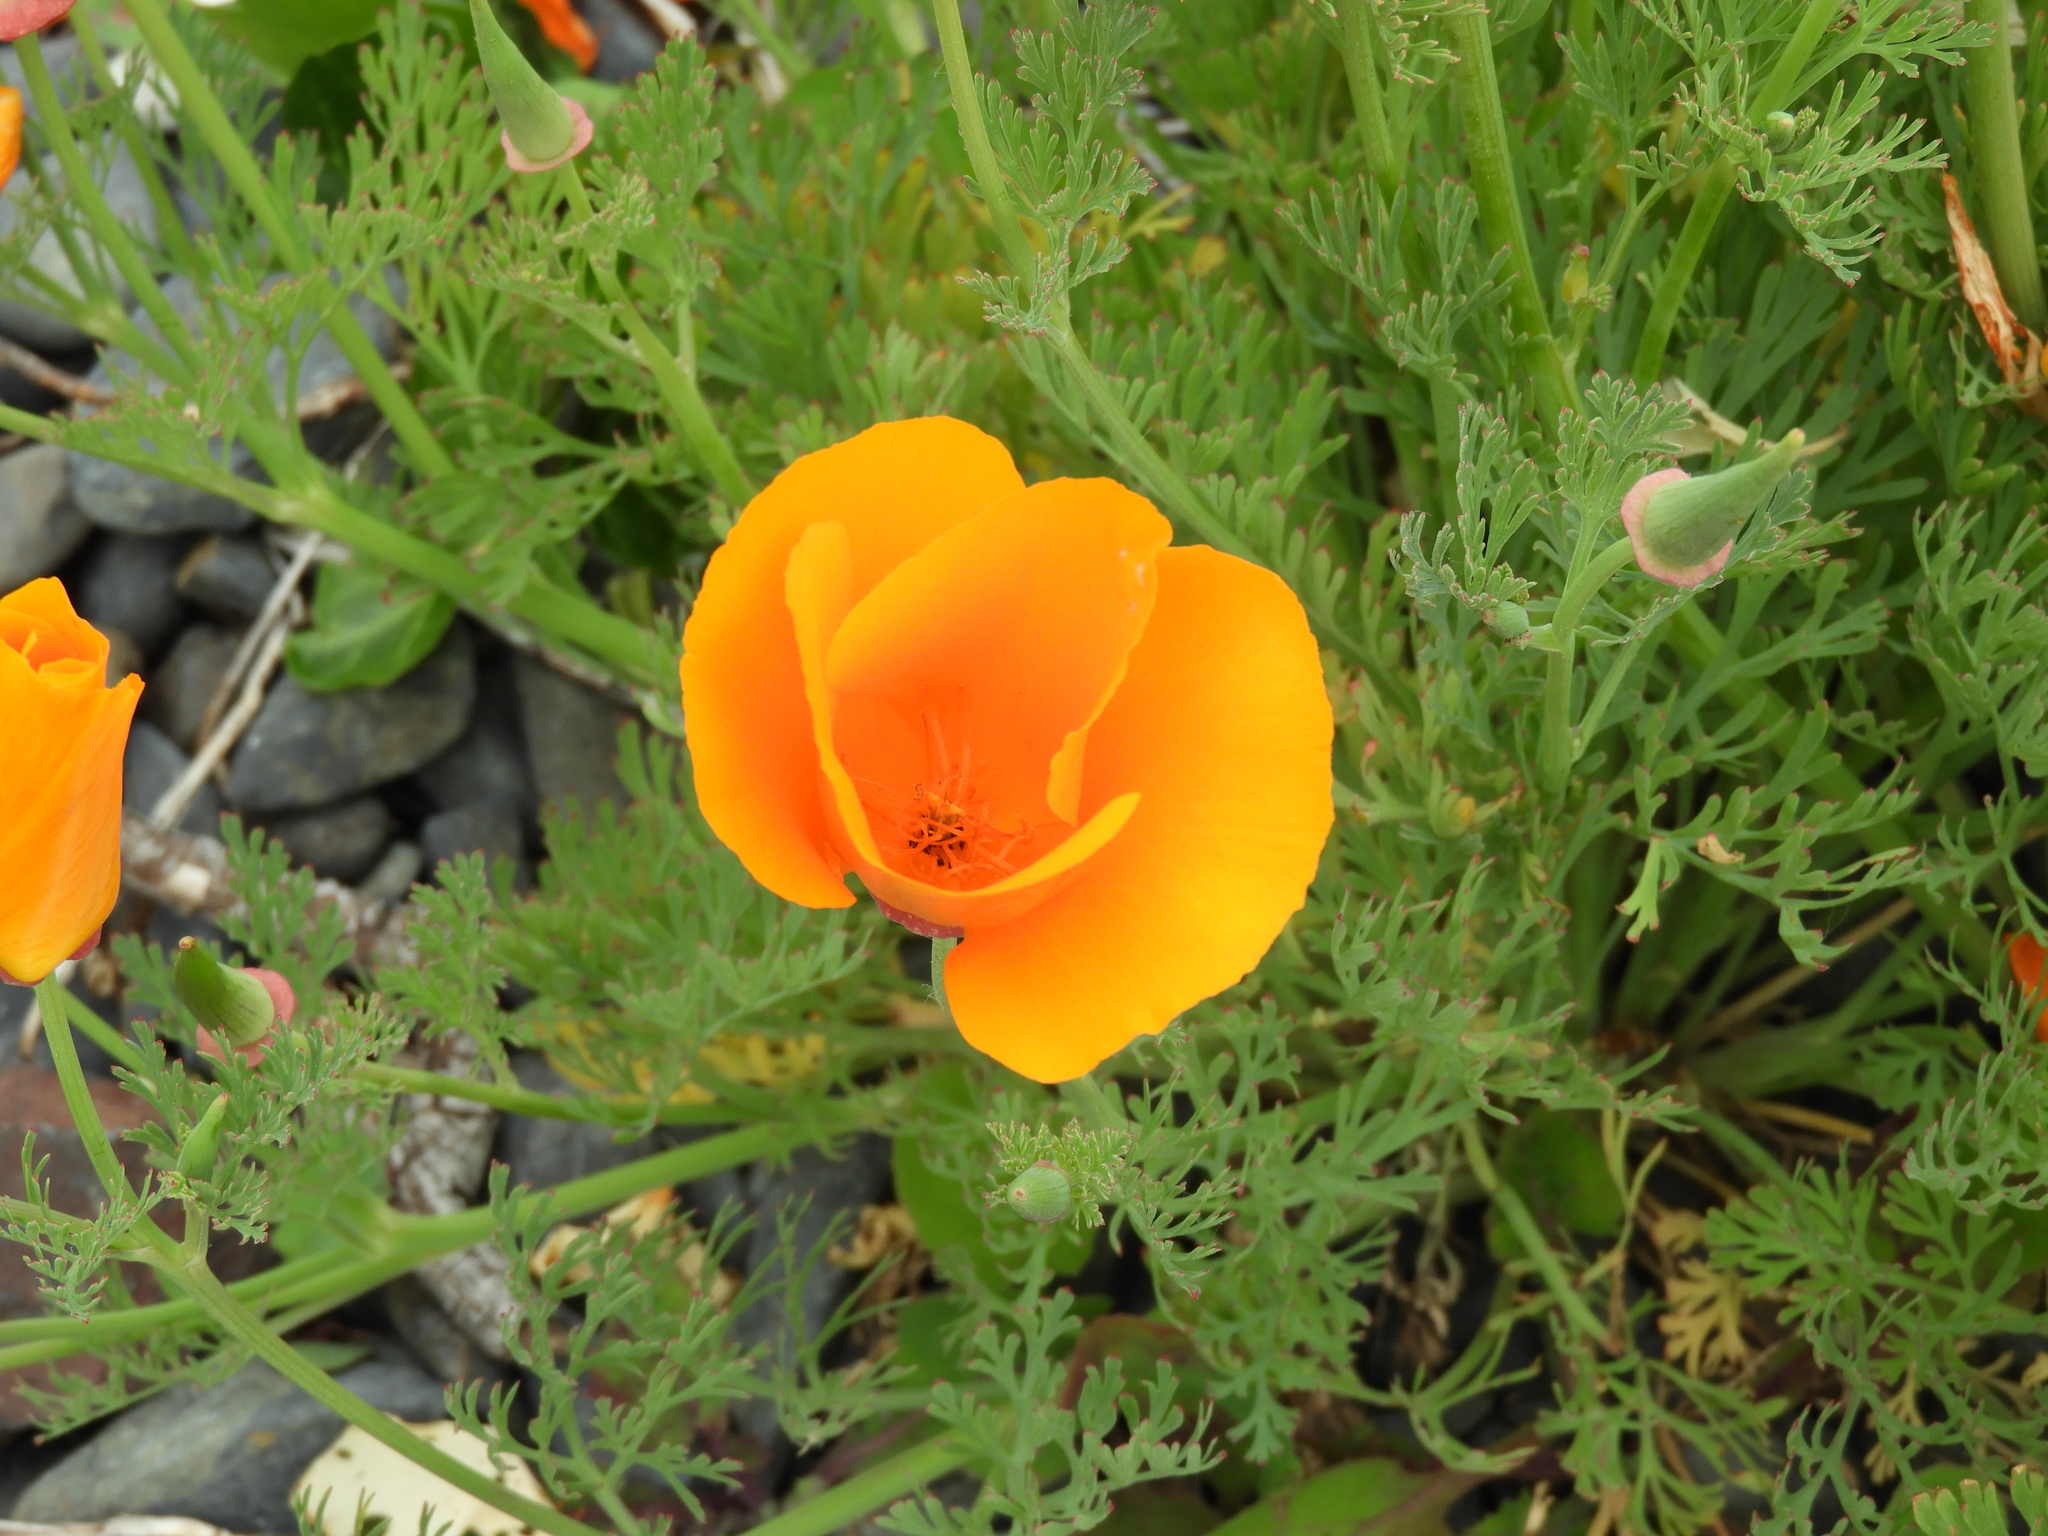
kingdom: Plantae
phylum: Tracheophyta
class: Magnoliopsida
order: Ranunculales
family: Papaveraceae
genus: Eschscholzia
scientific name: Eschscholzia californica
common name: California poppy
